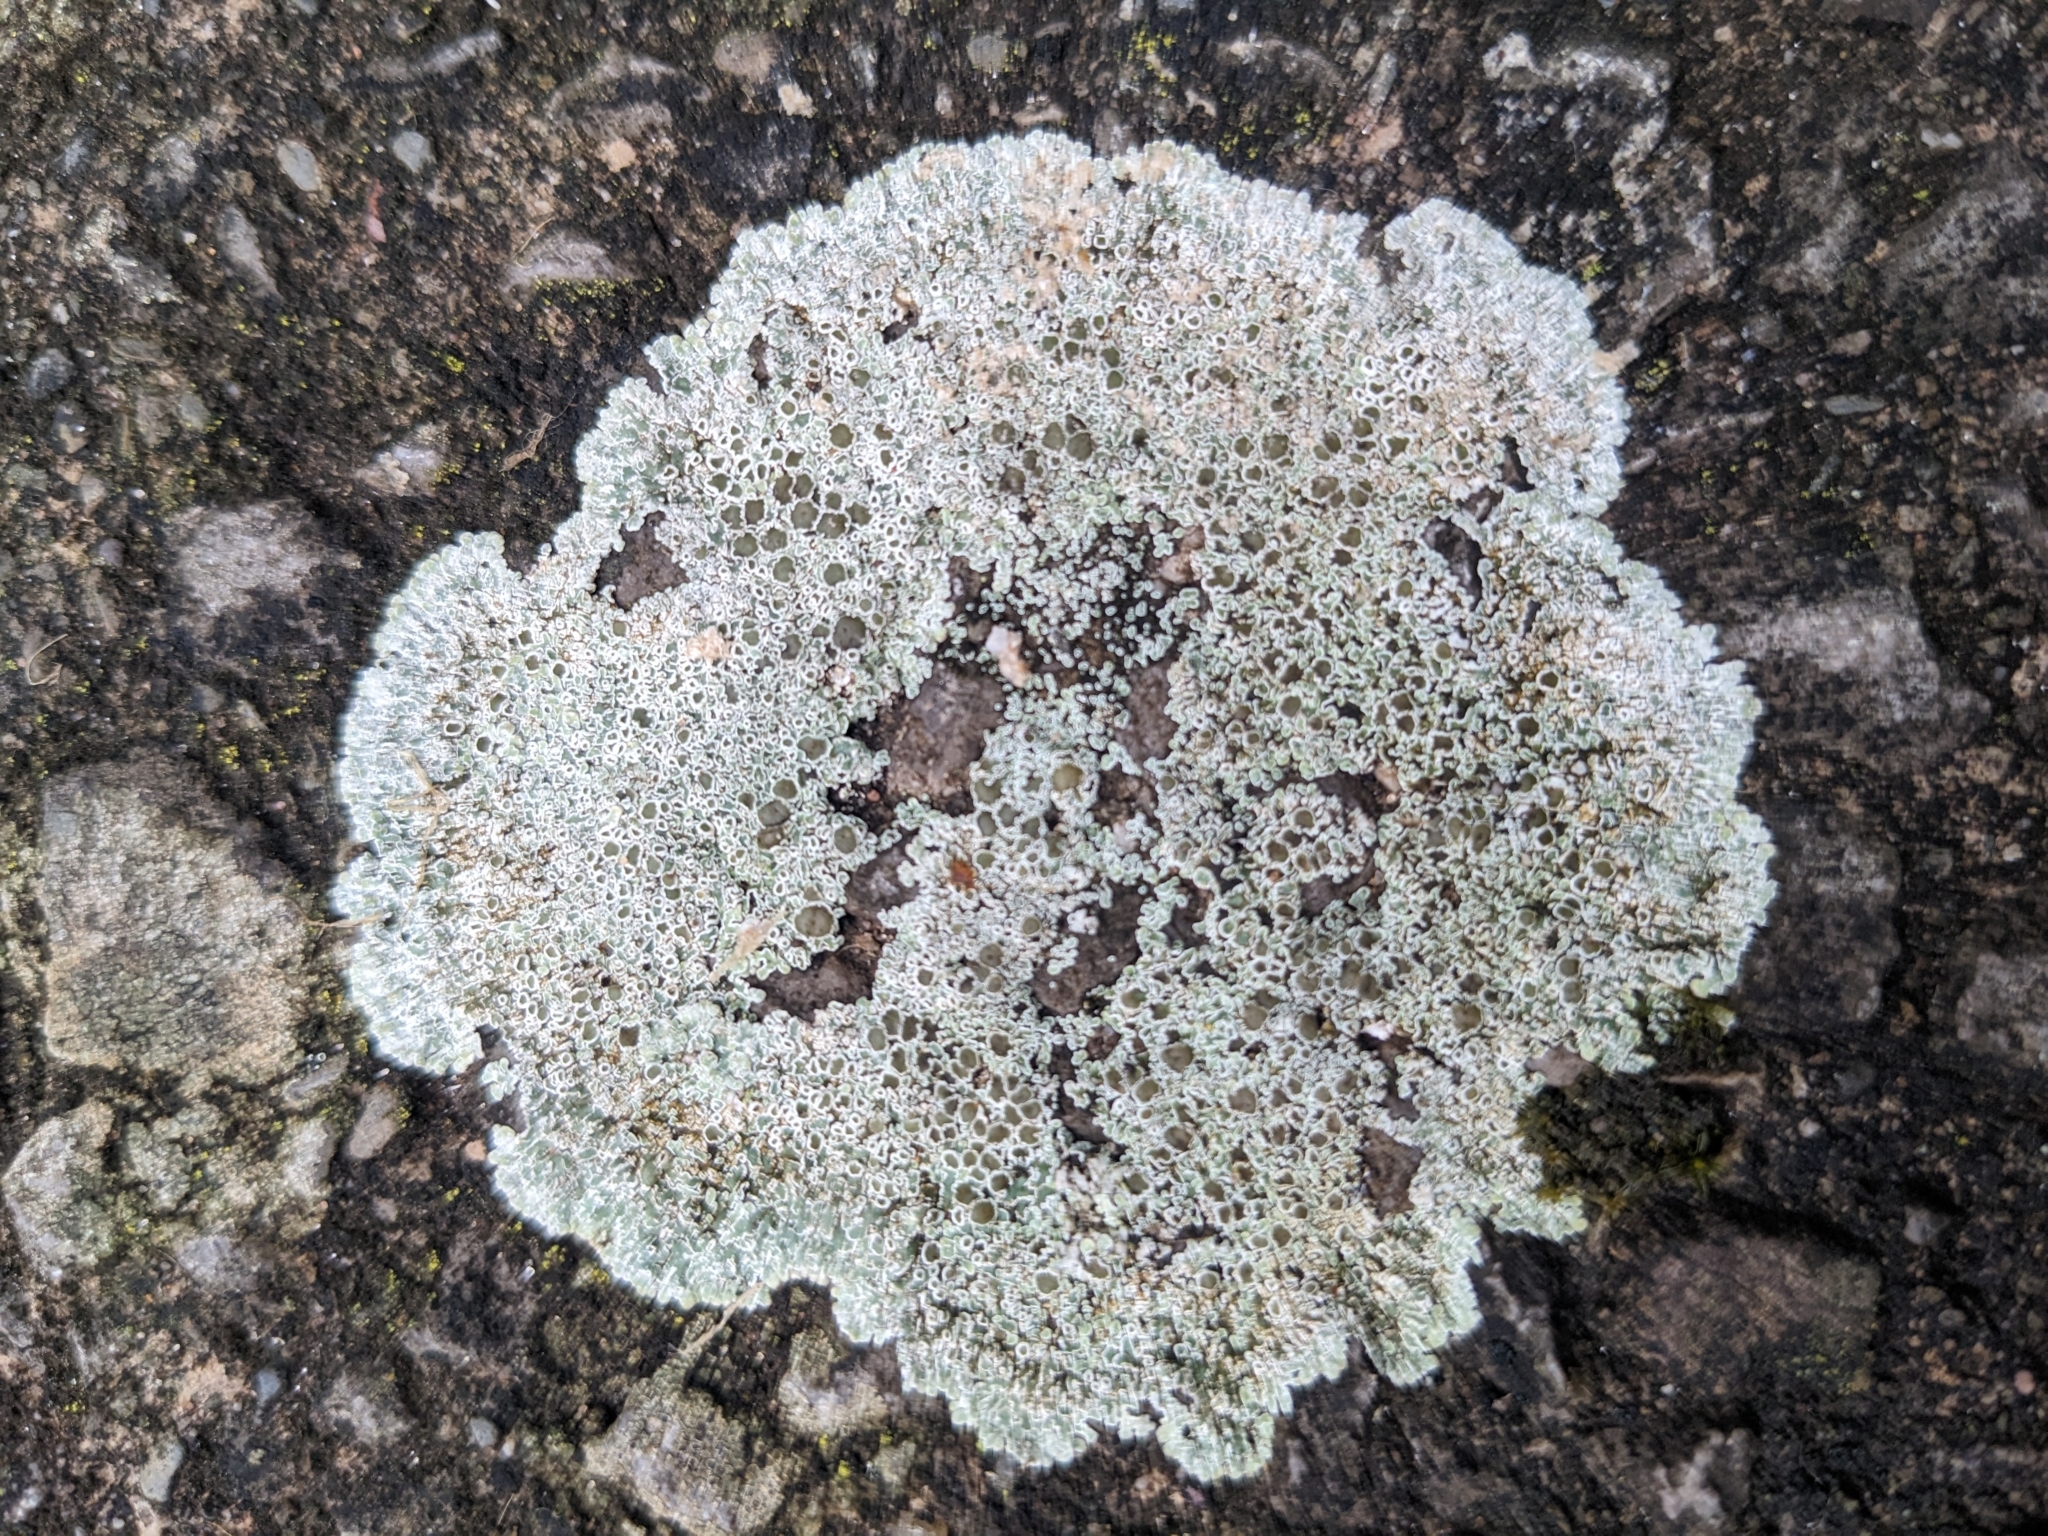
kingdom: Fungi
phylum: Ascomycota
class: Lecanoromycetes
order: Lecanorales
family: Lecanoraceae
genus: Protoparmeliopsis
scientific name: Protoparmeliopsis muralis
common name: Stonewall rim lichen
